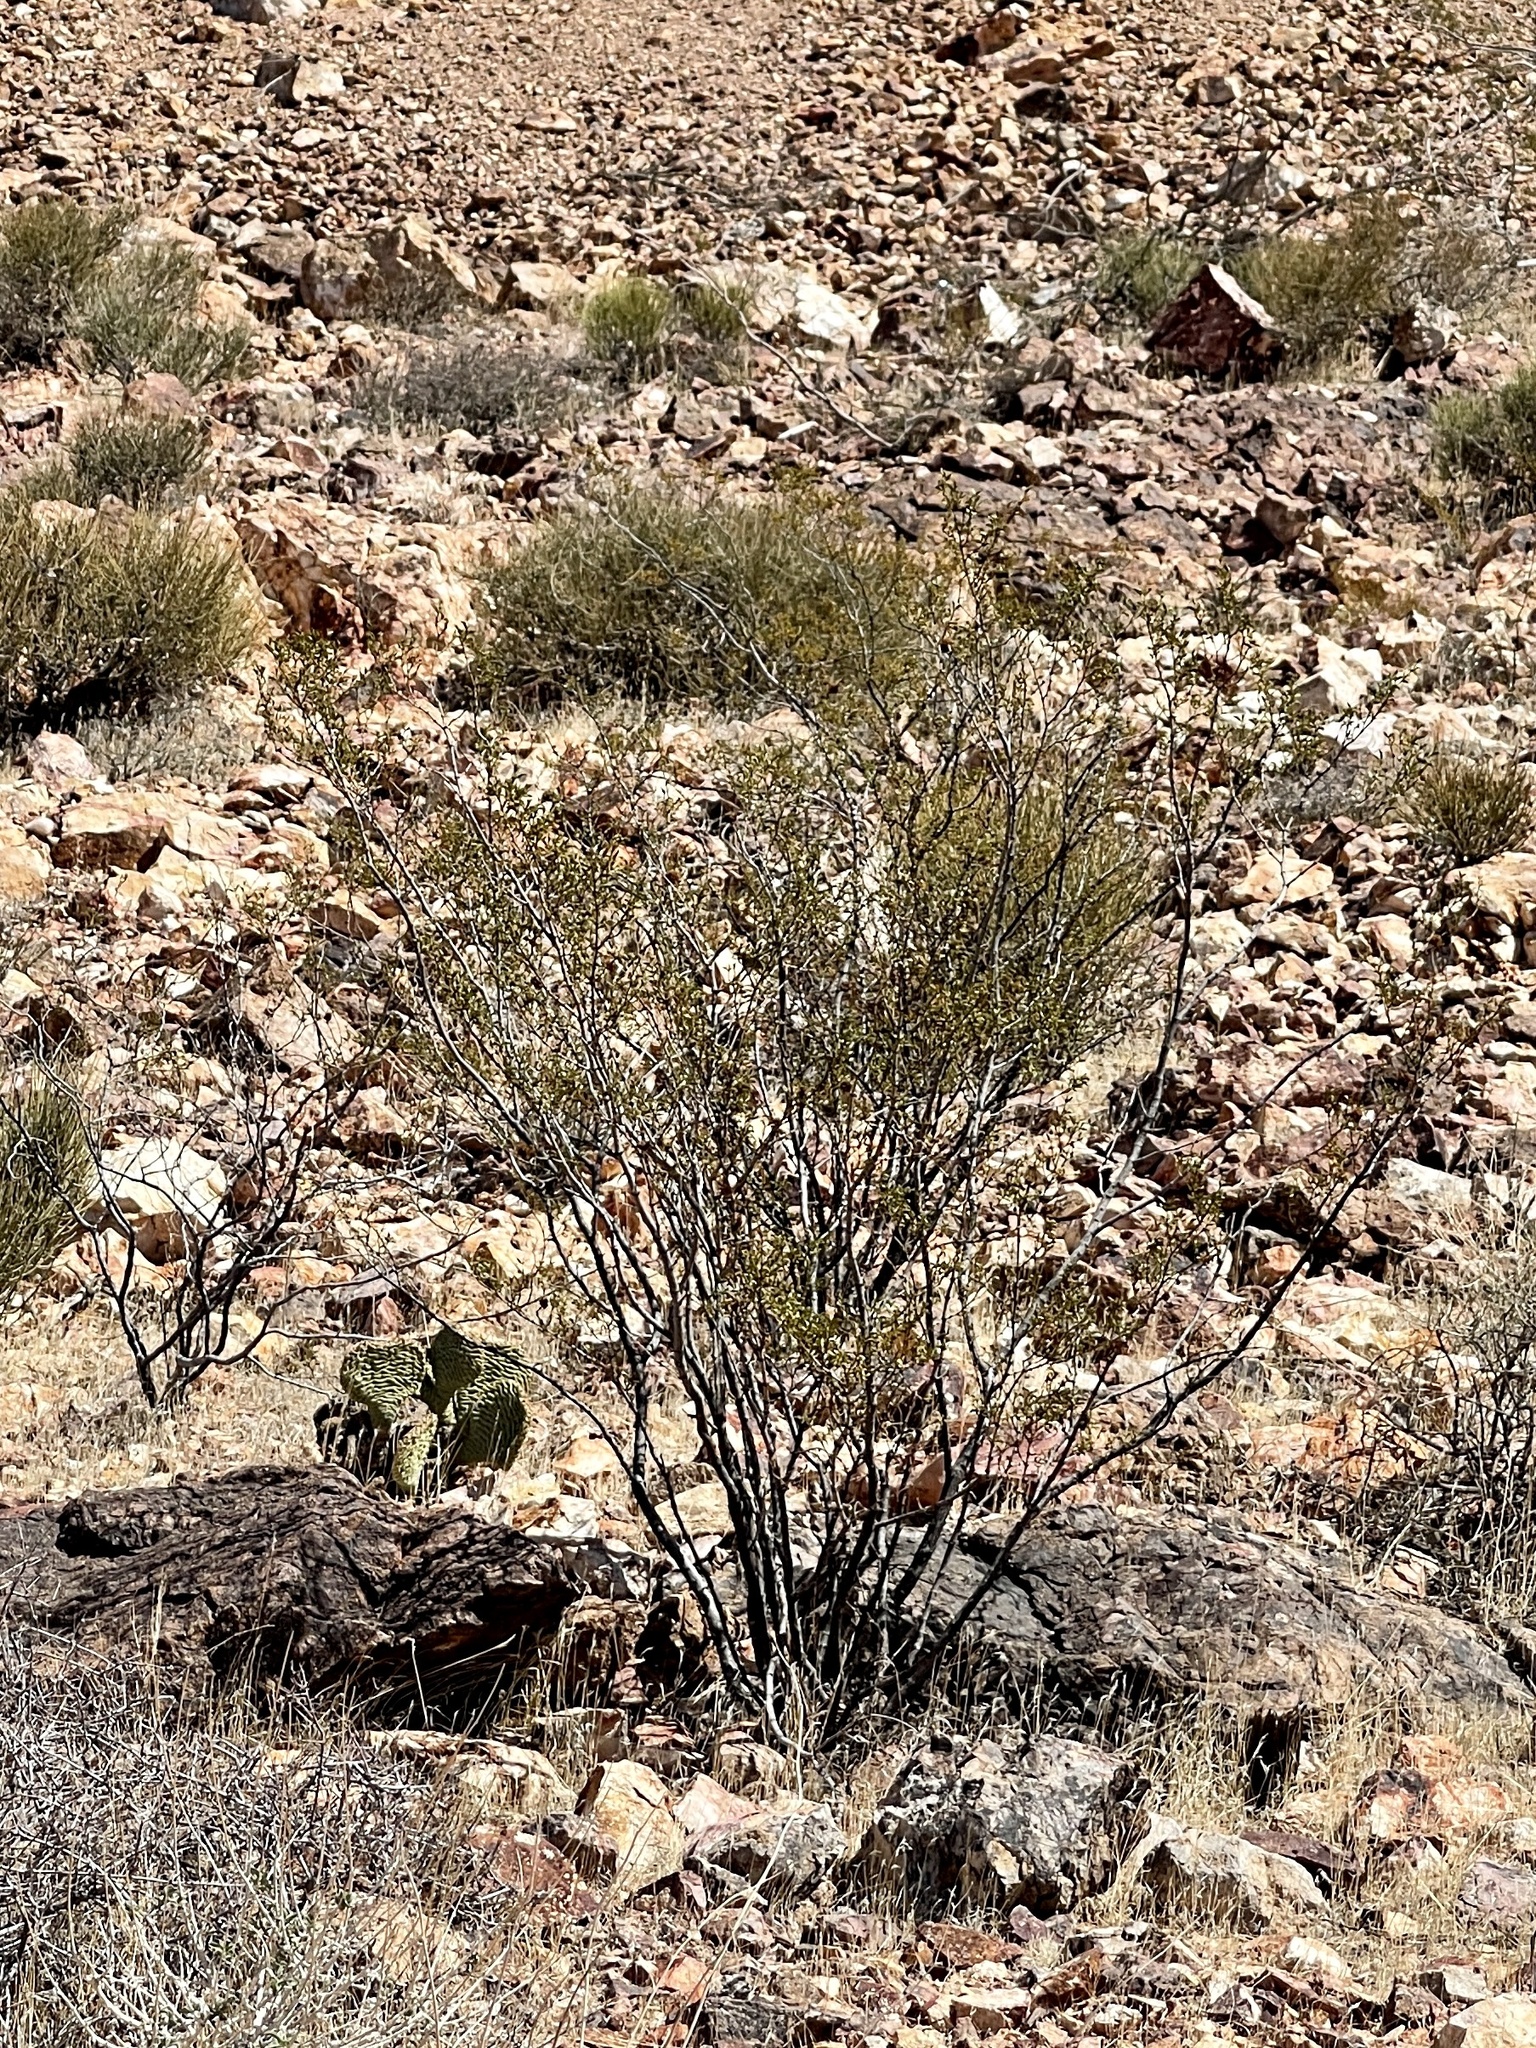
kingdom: Plantae
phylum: Tracheophyta
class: Magnoliopsida
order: Zygophyllales
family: Zygophyllaceae
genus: Larrea
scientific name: Larrea tridentata
